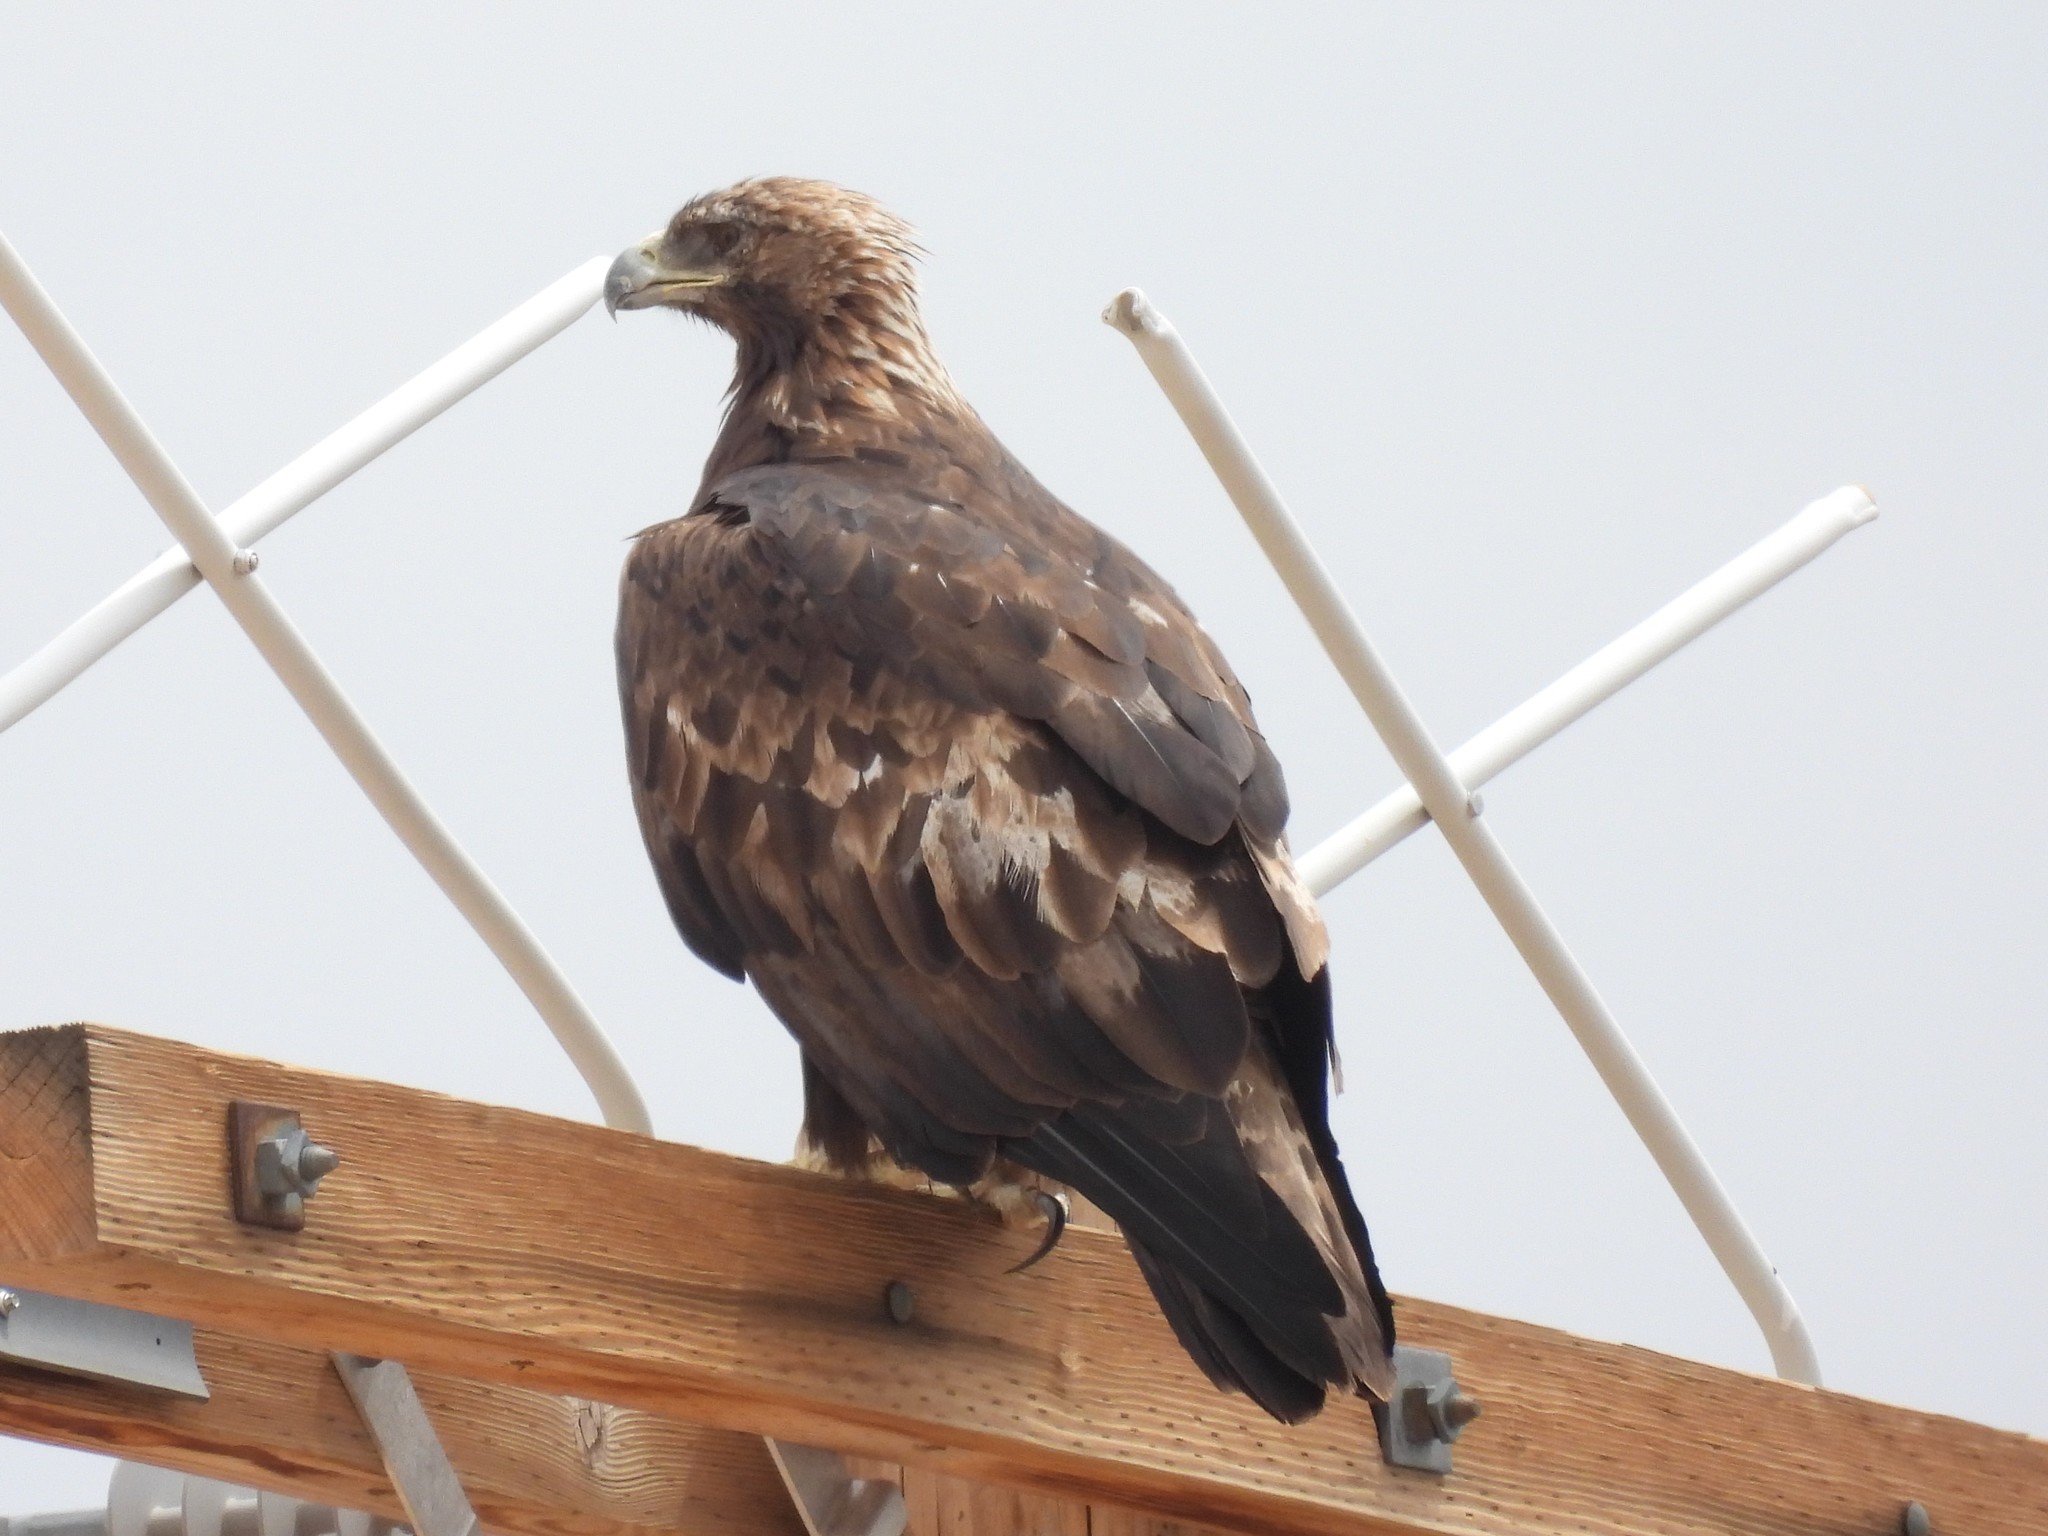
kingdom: Animalia
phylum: Chordata
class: Aves
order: Accipitriformes
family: Accipitridae
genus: Aquila
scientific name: Aquila chrysaetos
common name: Golden eagle
